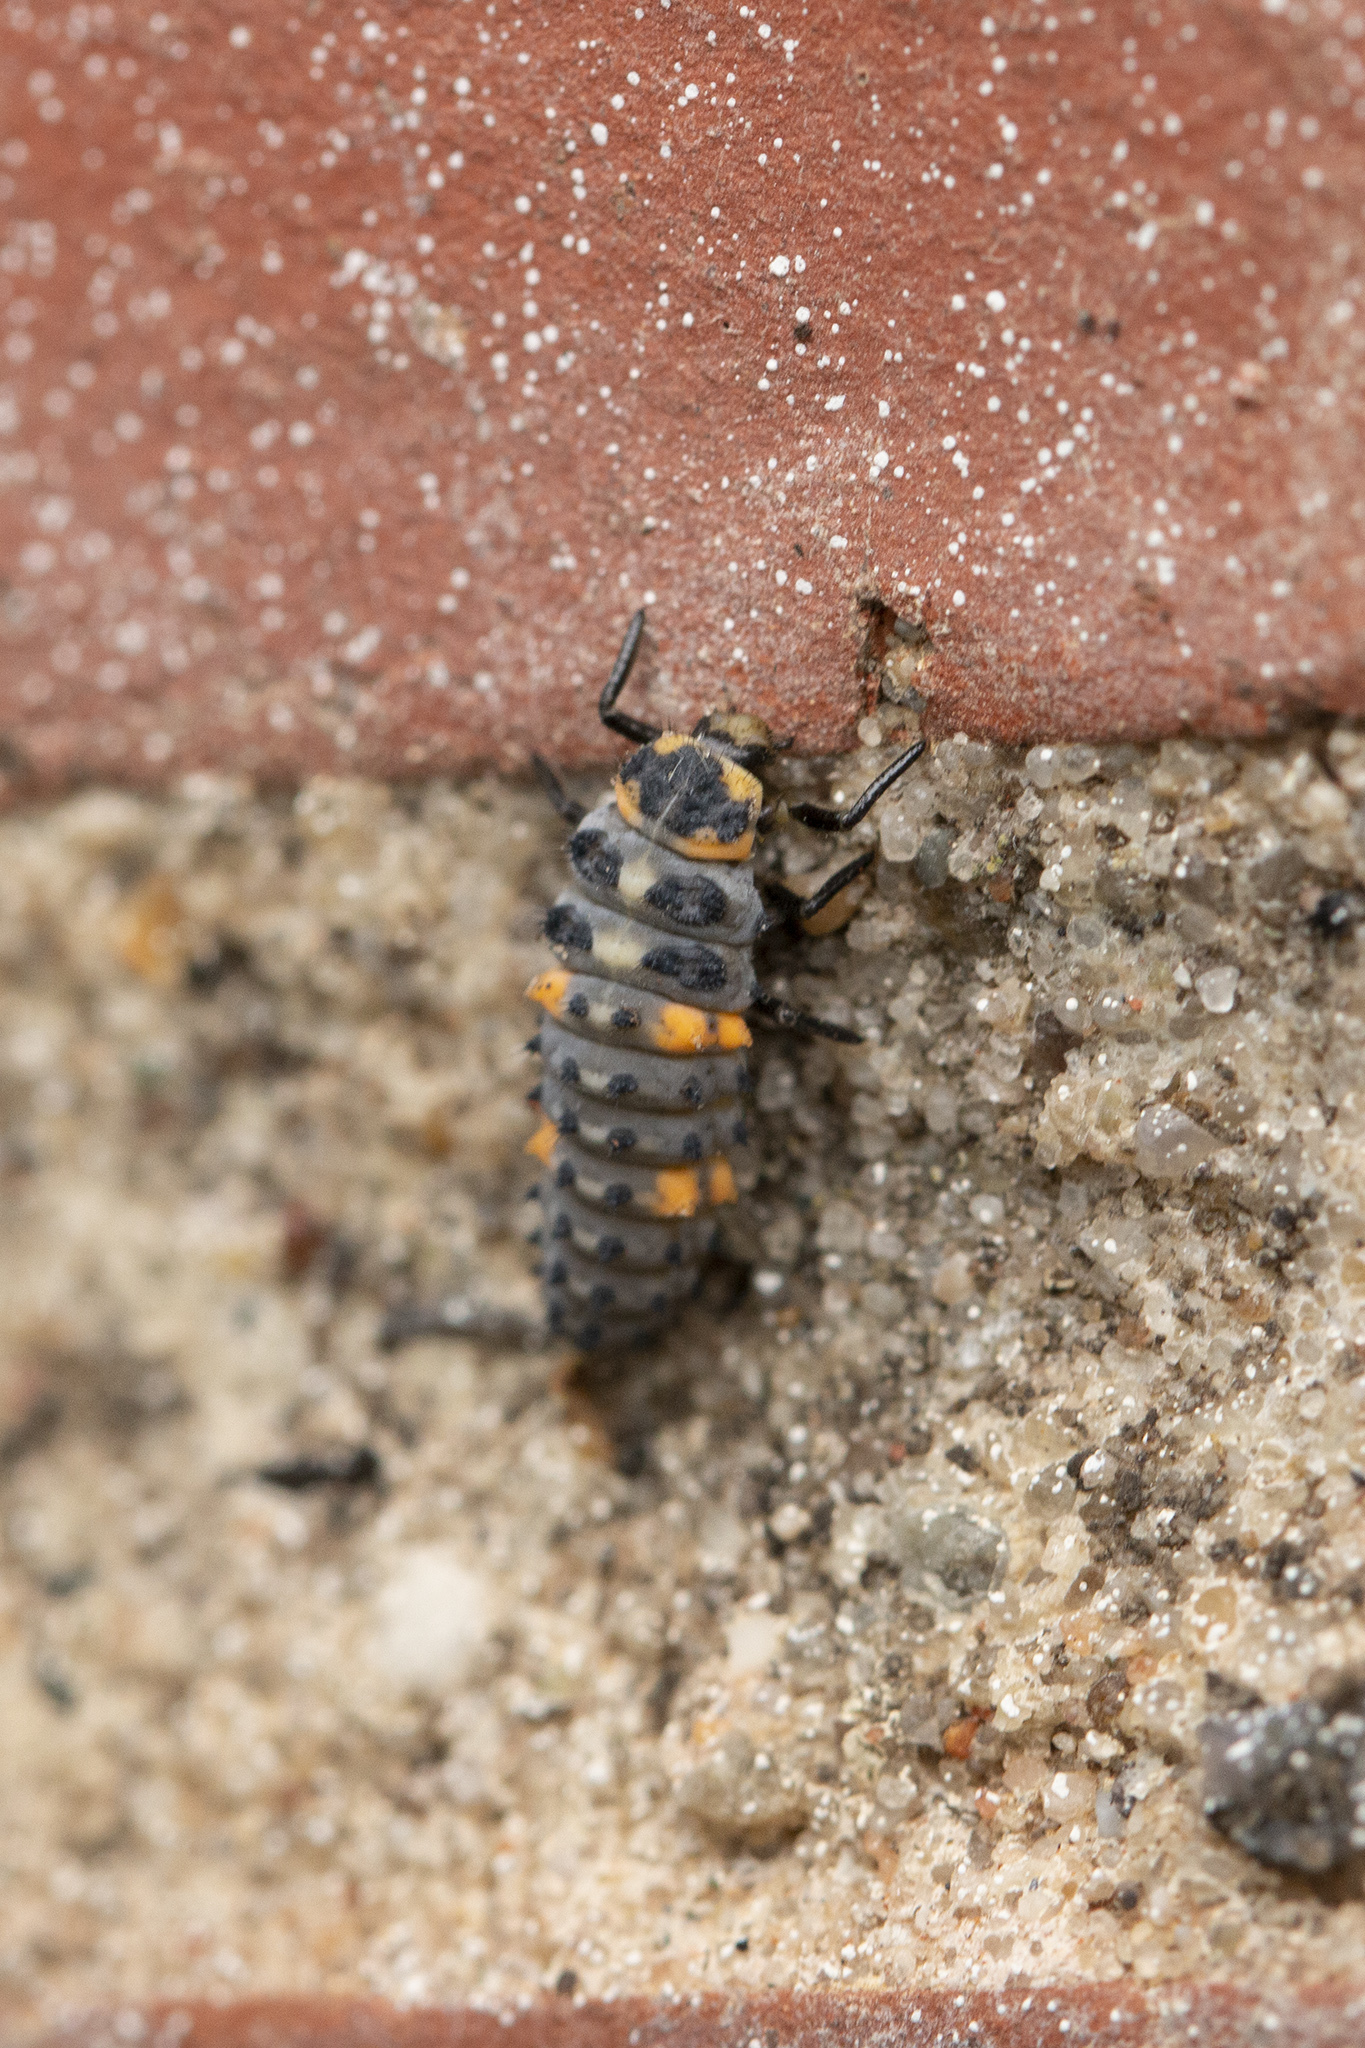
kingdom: Animalia
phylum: Arthropoda
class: Insecta
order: Coleoptera
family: Coccinellidae
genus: Coccinella
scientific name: Coccinella septempunctata
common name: Sevenspotted lady beetle
